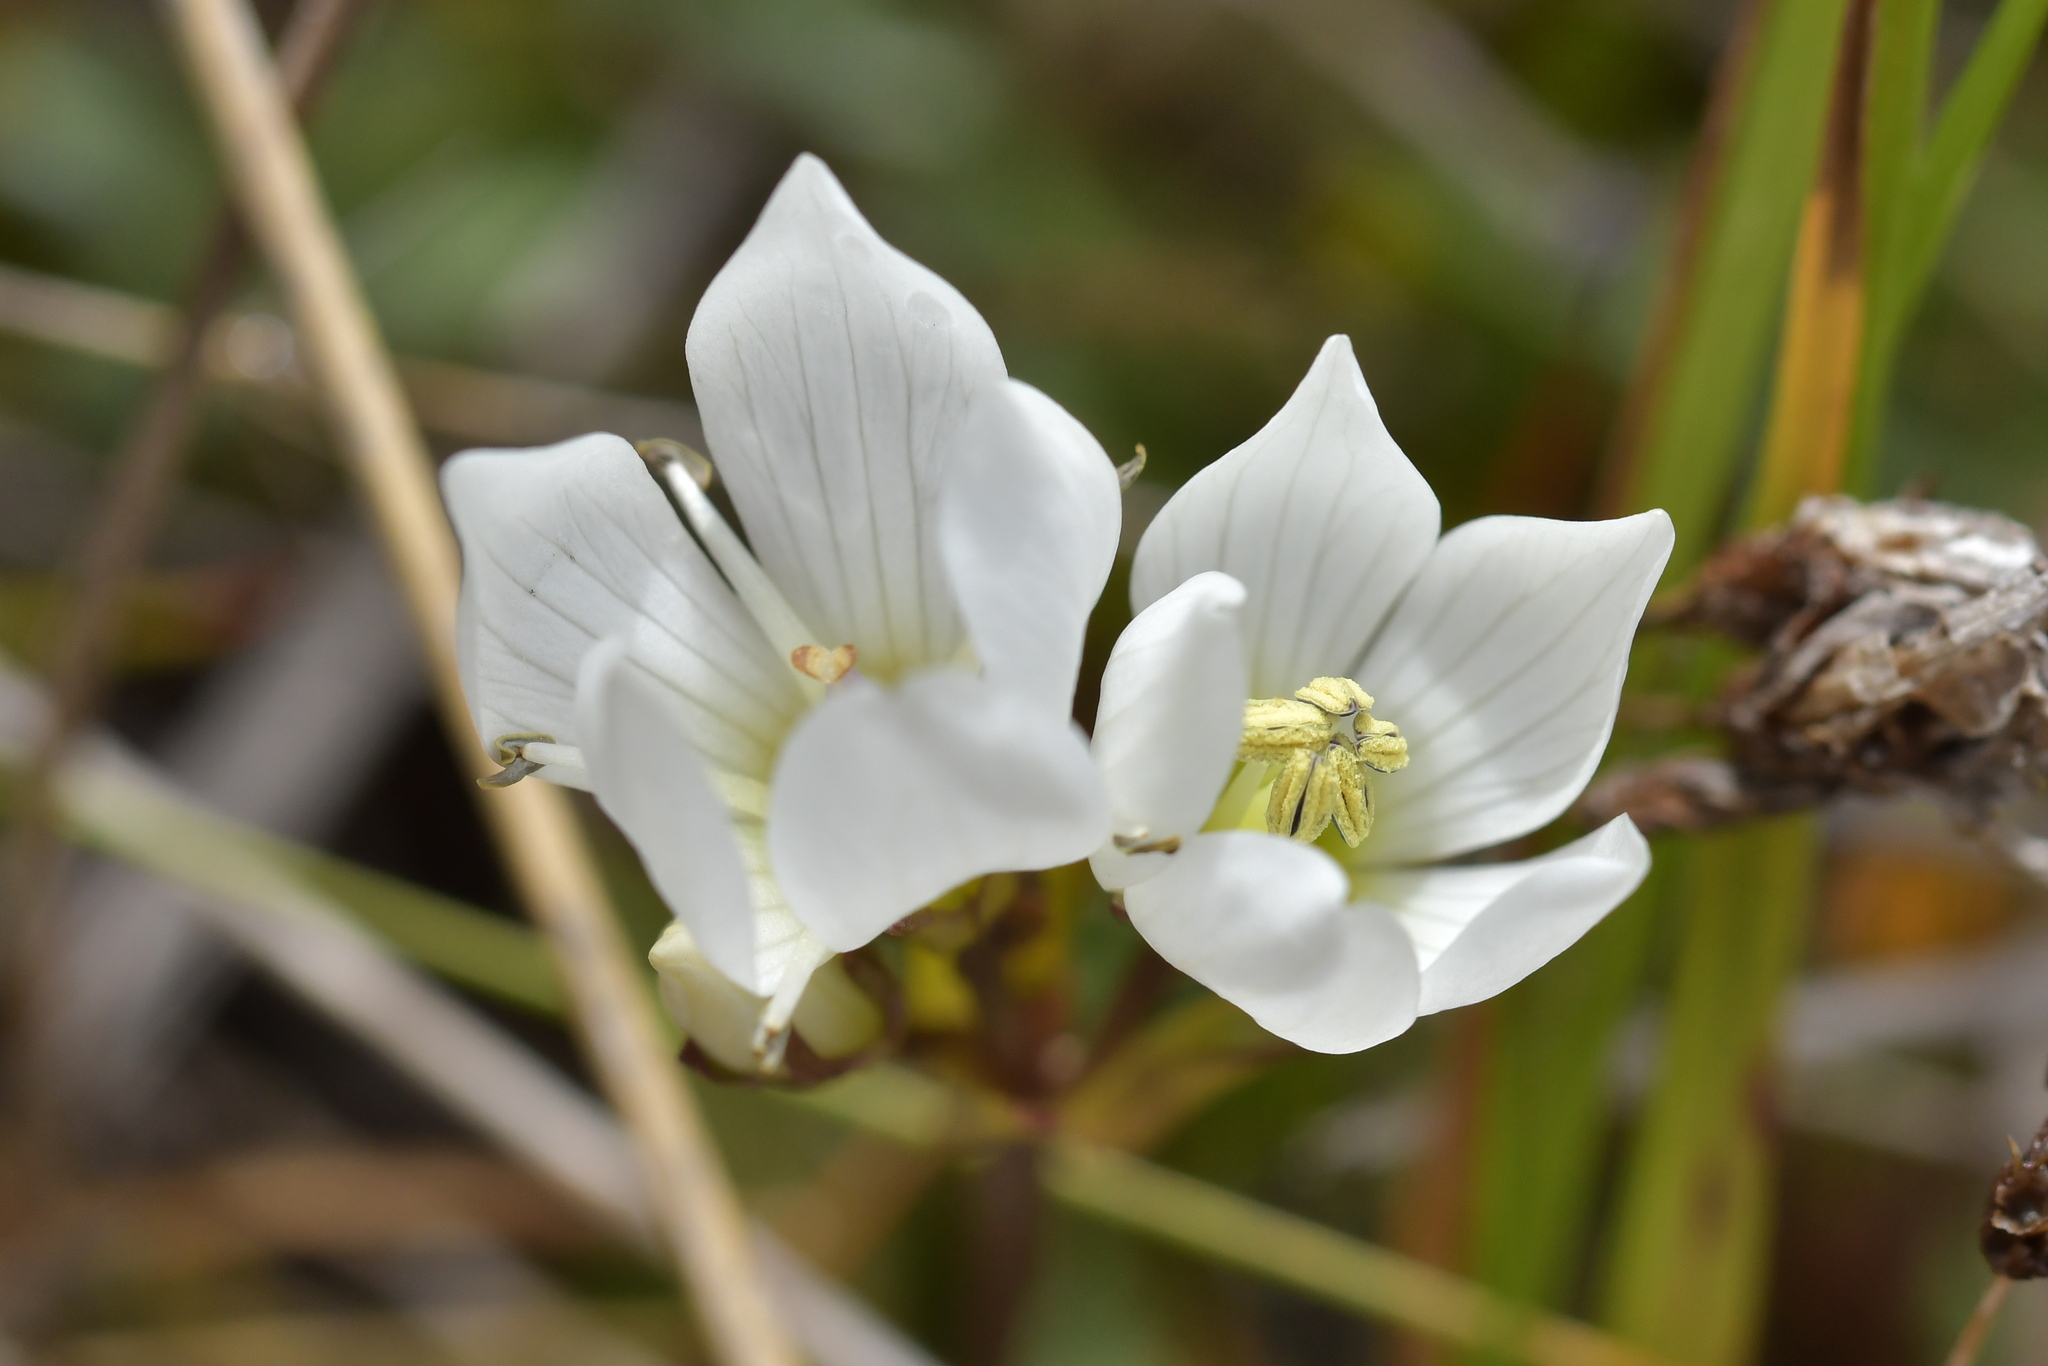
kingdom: Plantae
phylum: Tracheophyta
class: Magnoliopsida
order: Gentianales
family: Gentianaceae
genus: Gentianella
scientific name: Gentianella bellidifolia
